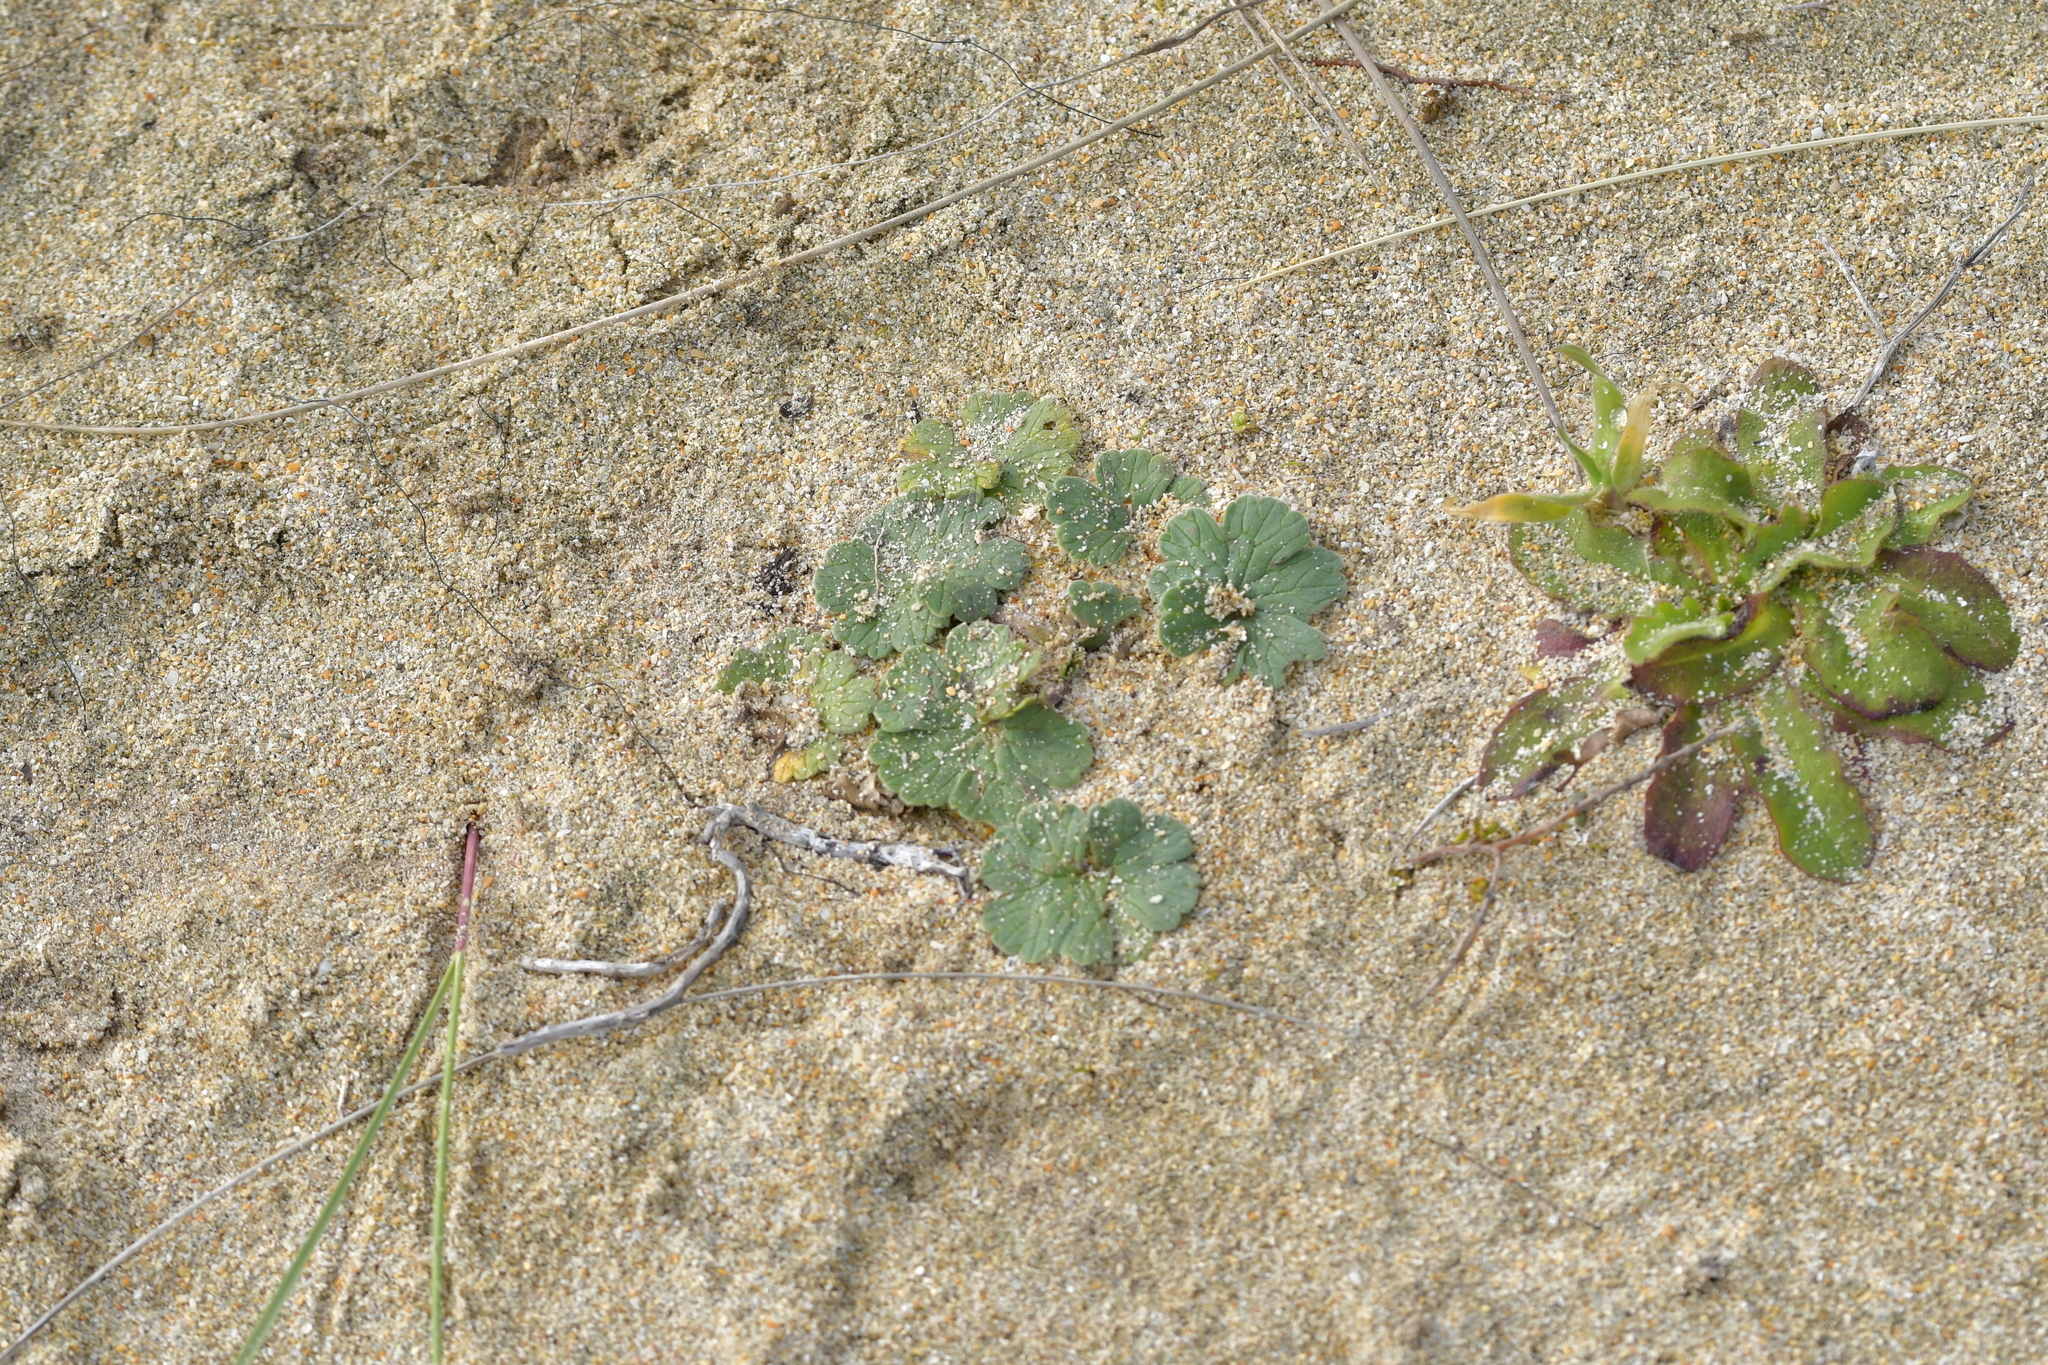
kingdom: Plantae
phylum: Tracheophyta
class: Magnoliopsida
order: Geraniales
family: Geraniaceae
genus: Geranium
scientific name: Geranium traversii
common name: Cranesbill
